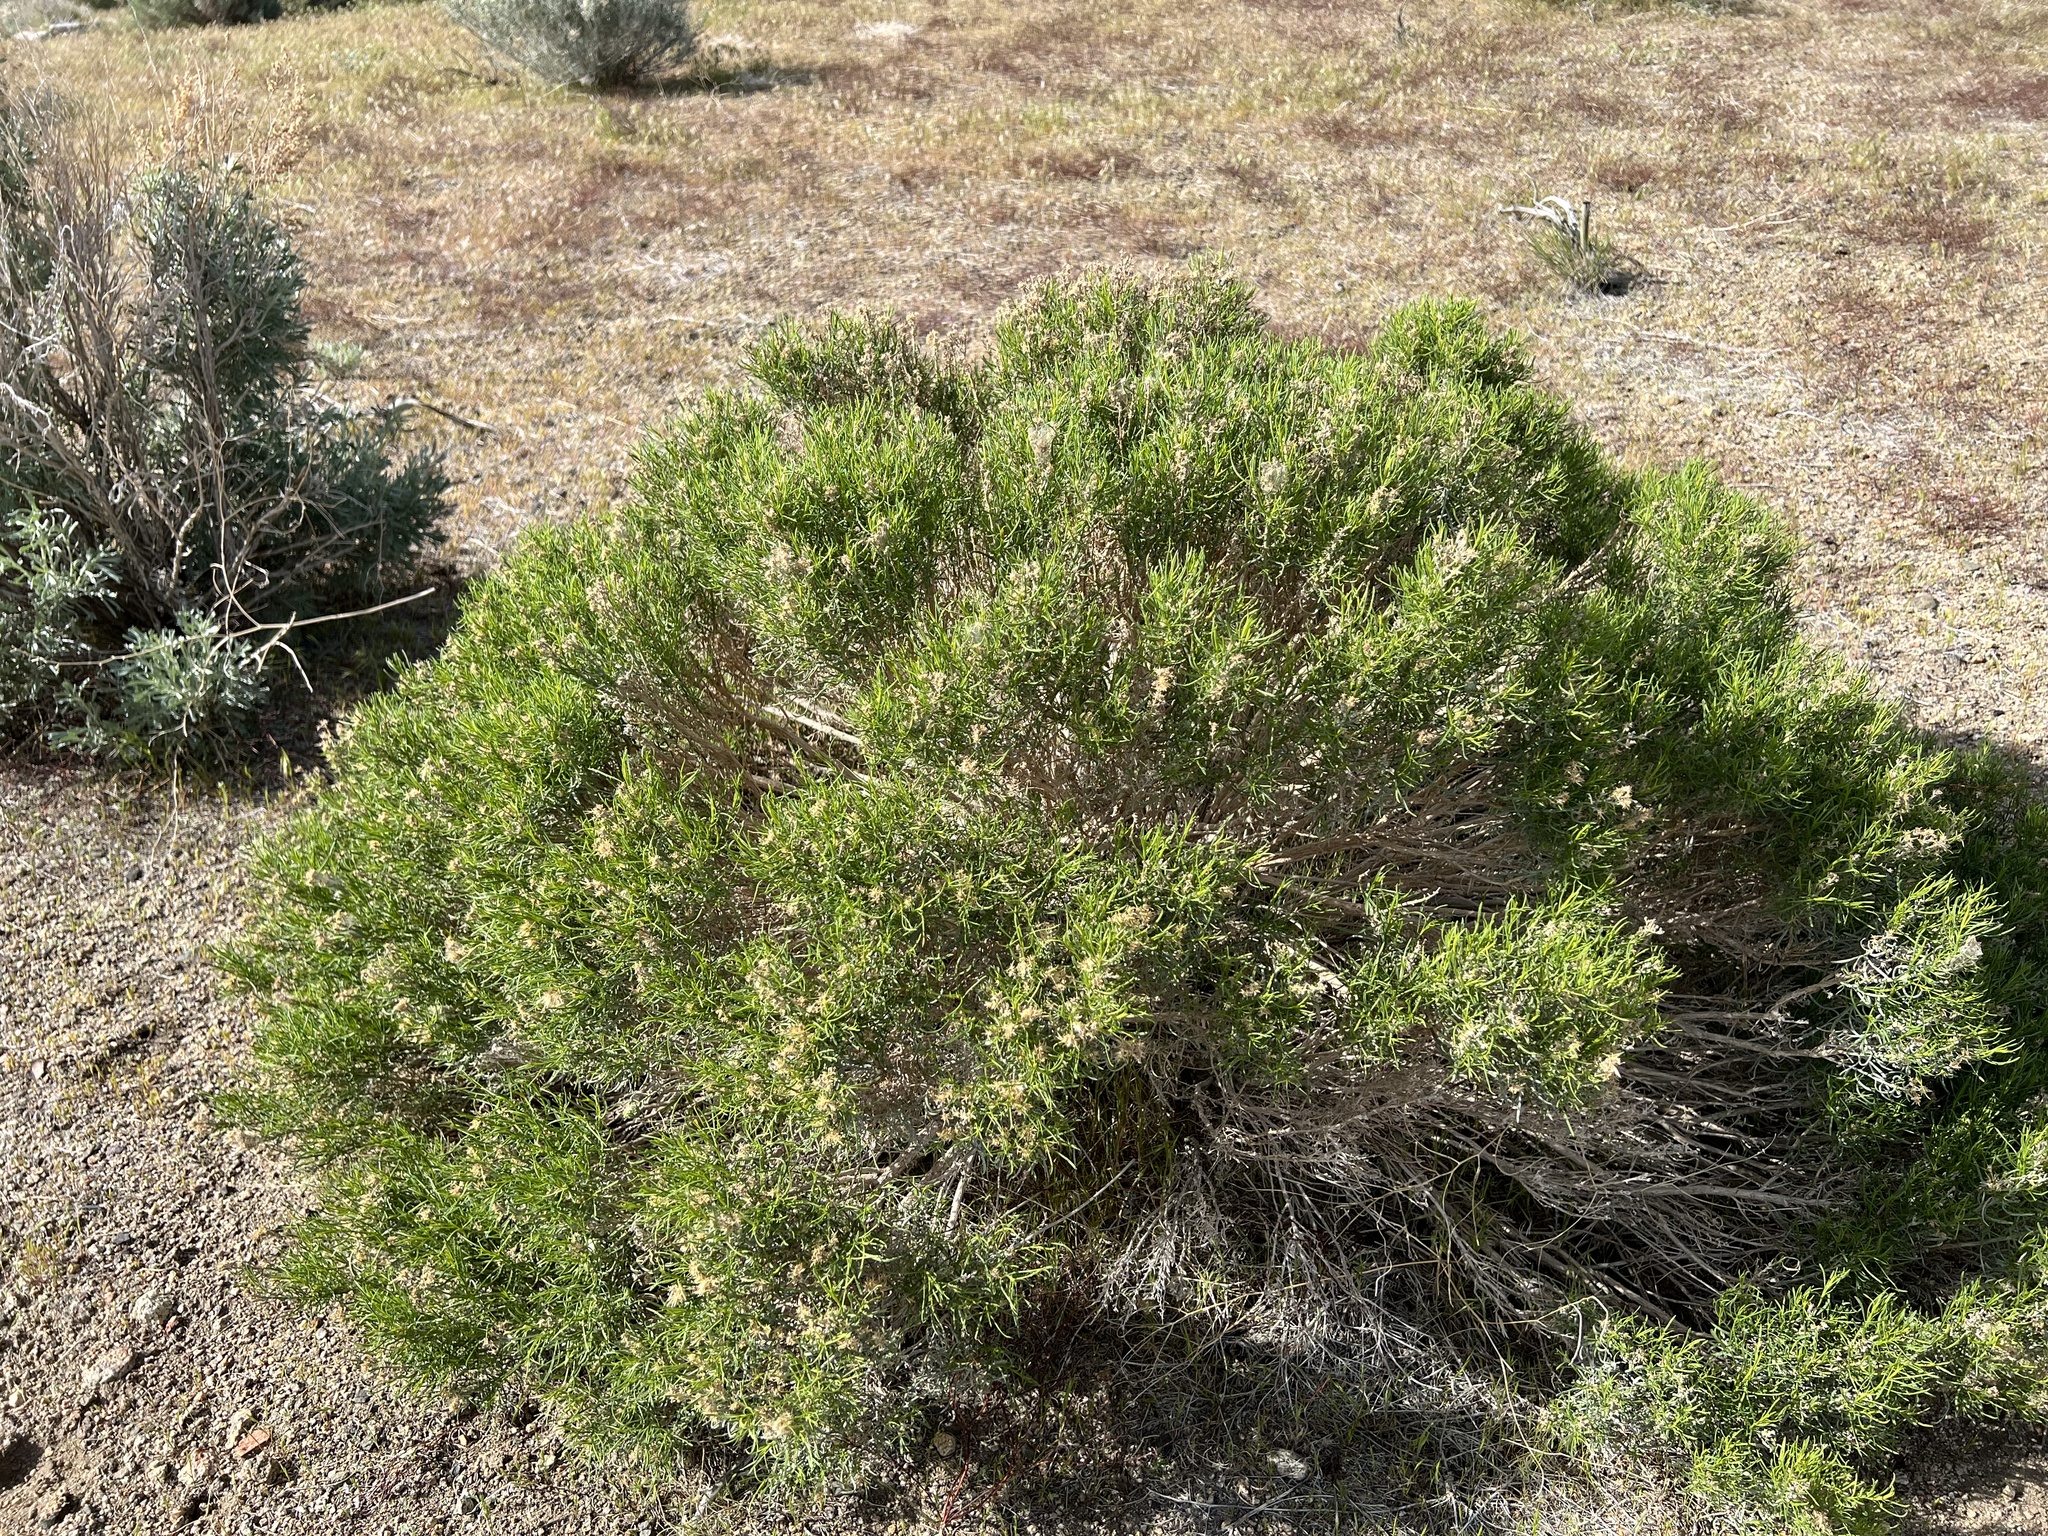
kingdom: Plantae
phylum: Tracheophyta
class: Magnoliopsida
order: Asterales
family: Asteraceae
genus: Ericameria
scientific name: Ericameria teretifolia
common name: Round-leaf rabbitbrush
